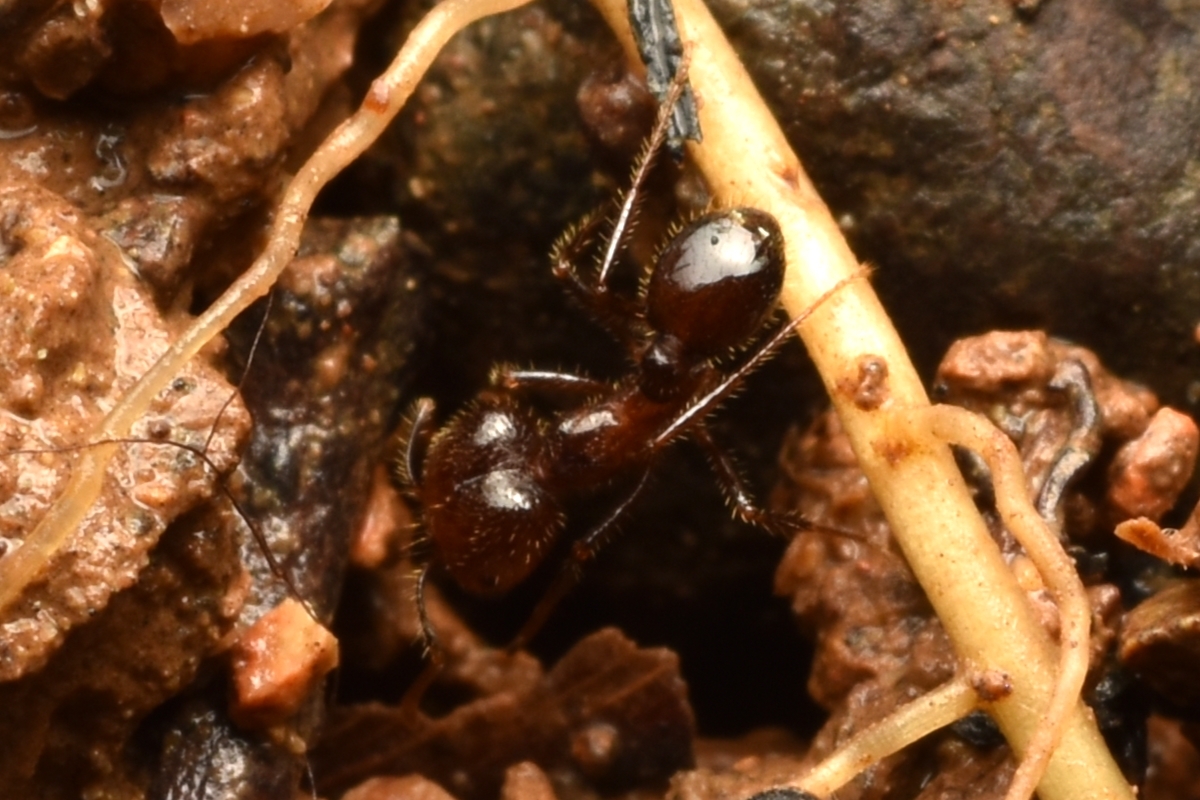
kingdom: Animalia
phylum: Arthropoda
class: Insecta
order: Hymenoptera
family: Formicidae
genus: Solenopsis
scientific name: Solenopsis geminata
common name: Tropical fire ant
